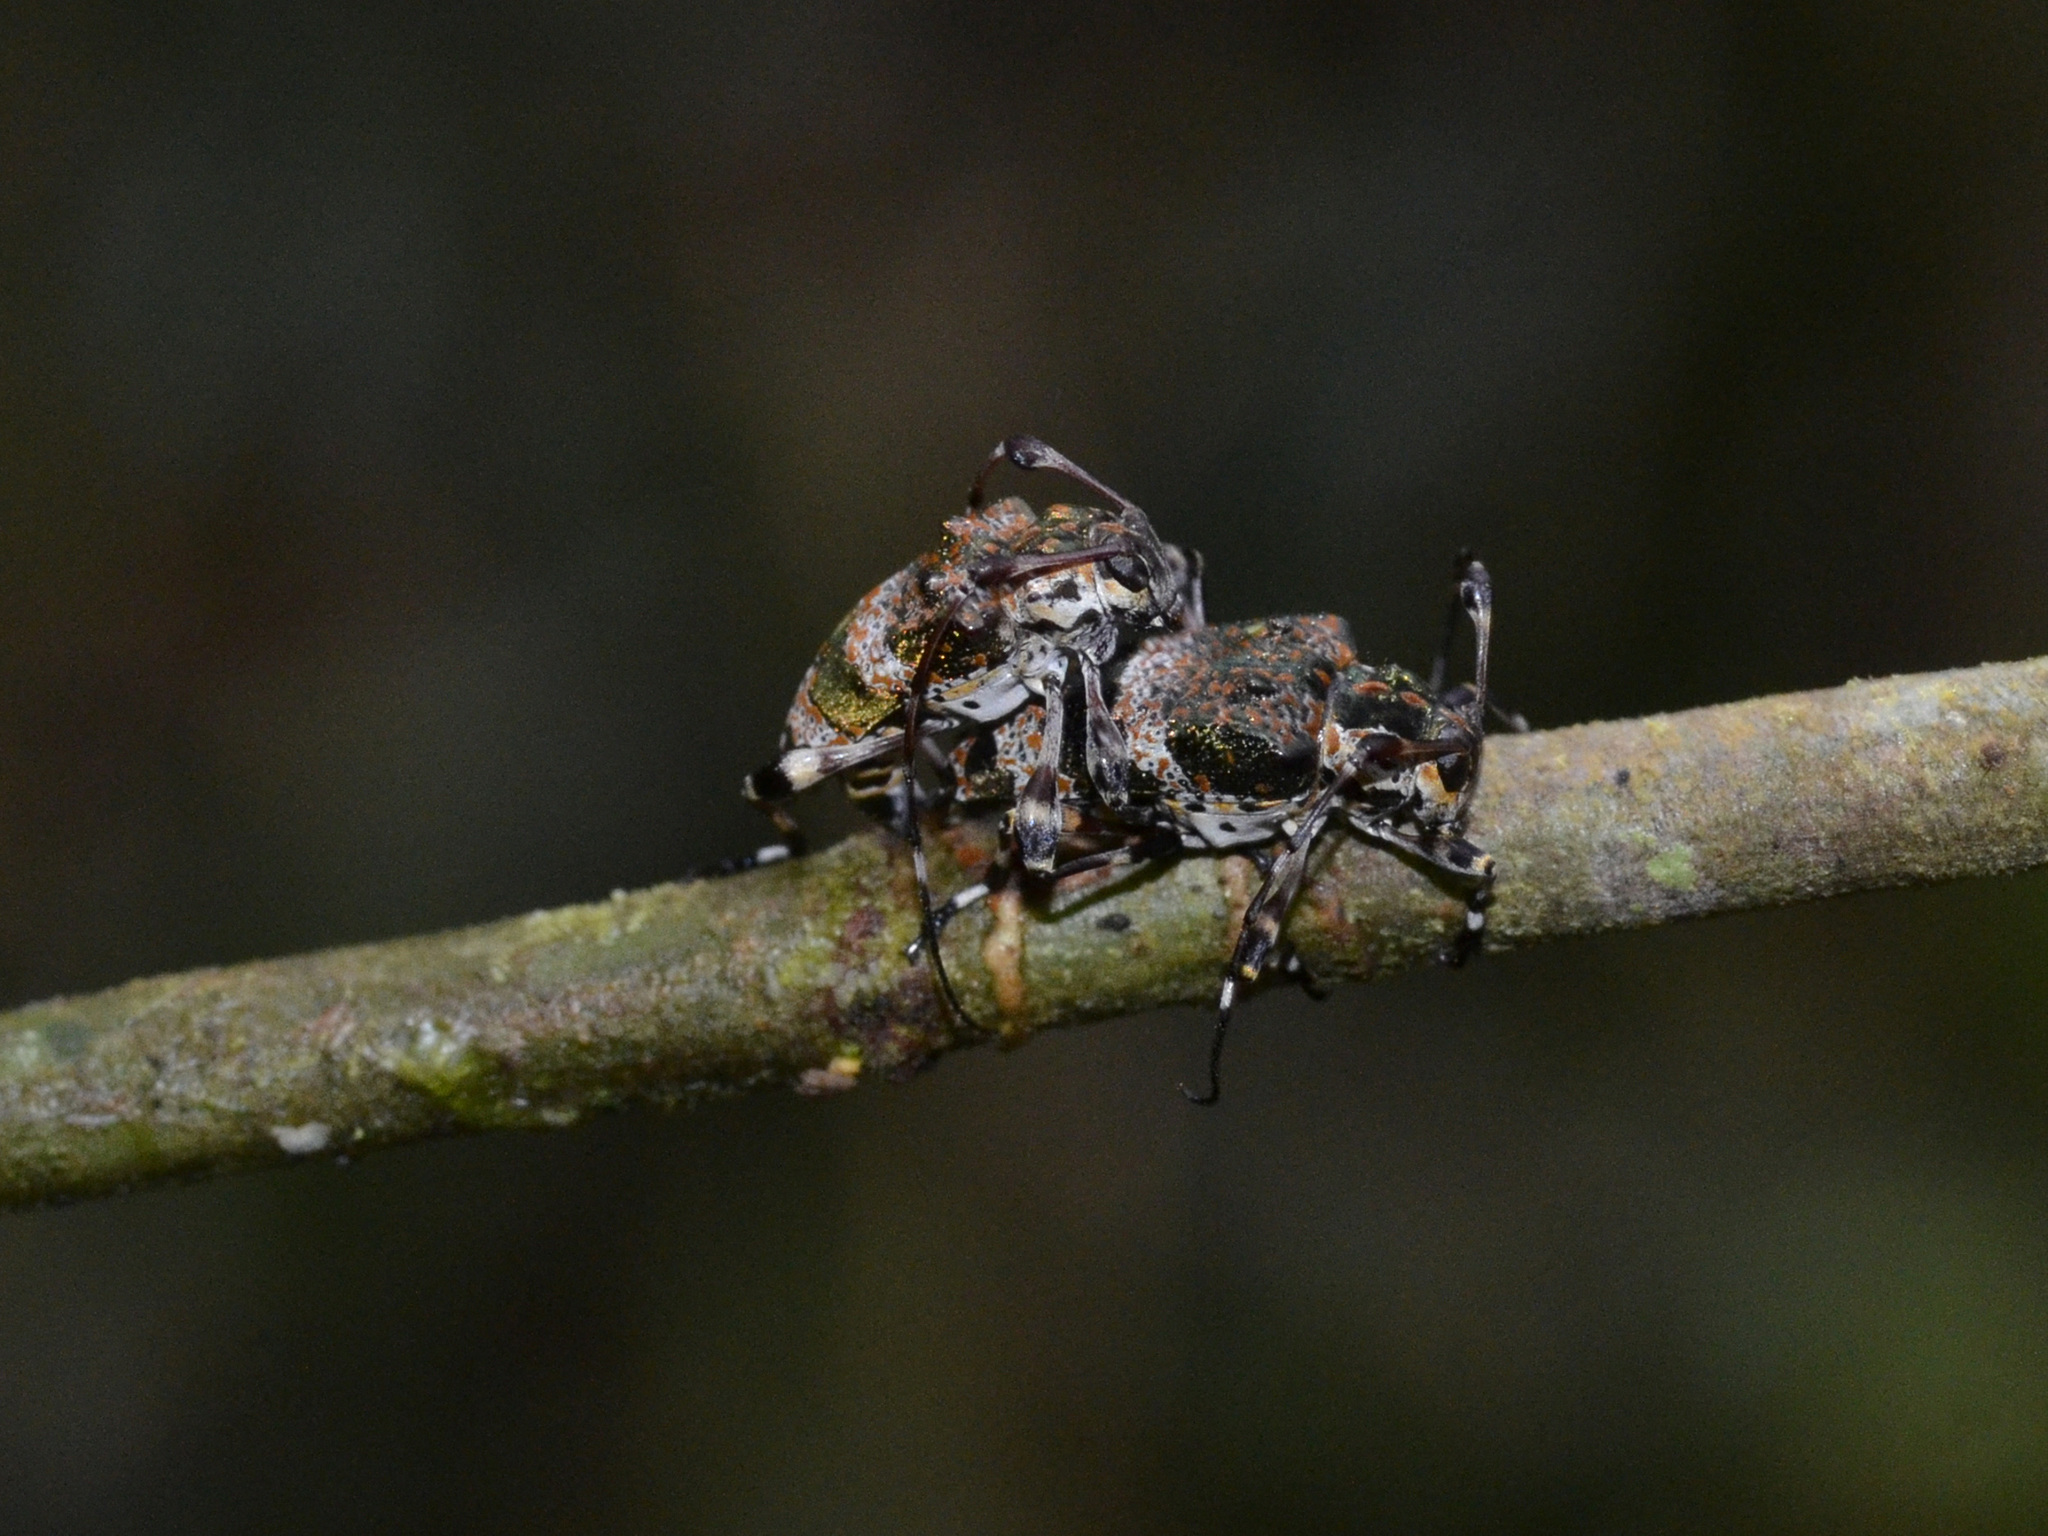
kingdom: Animalia
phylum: Arthropoda
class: Insecta
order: Coleoptera
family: Cerambycidae
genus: Nodubothea
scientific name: Nodubothea nodicornis
